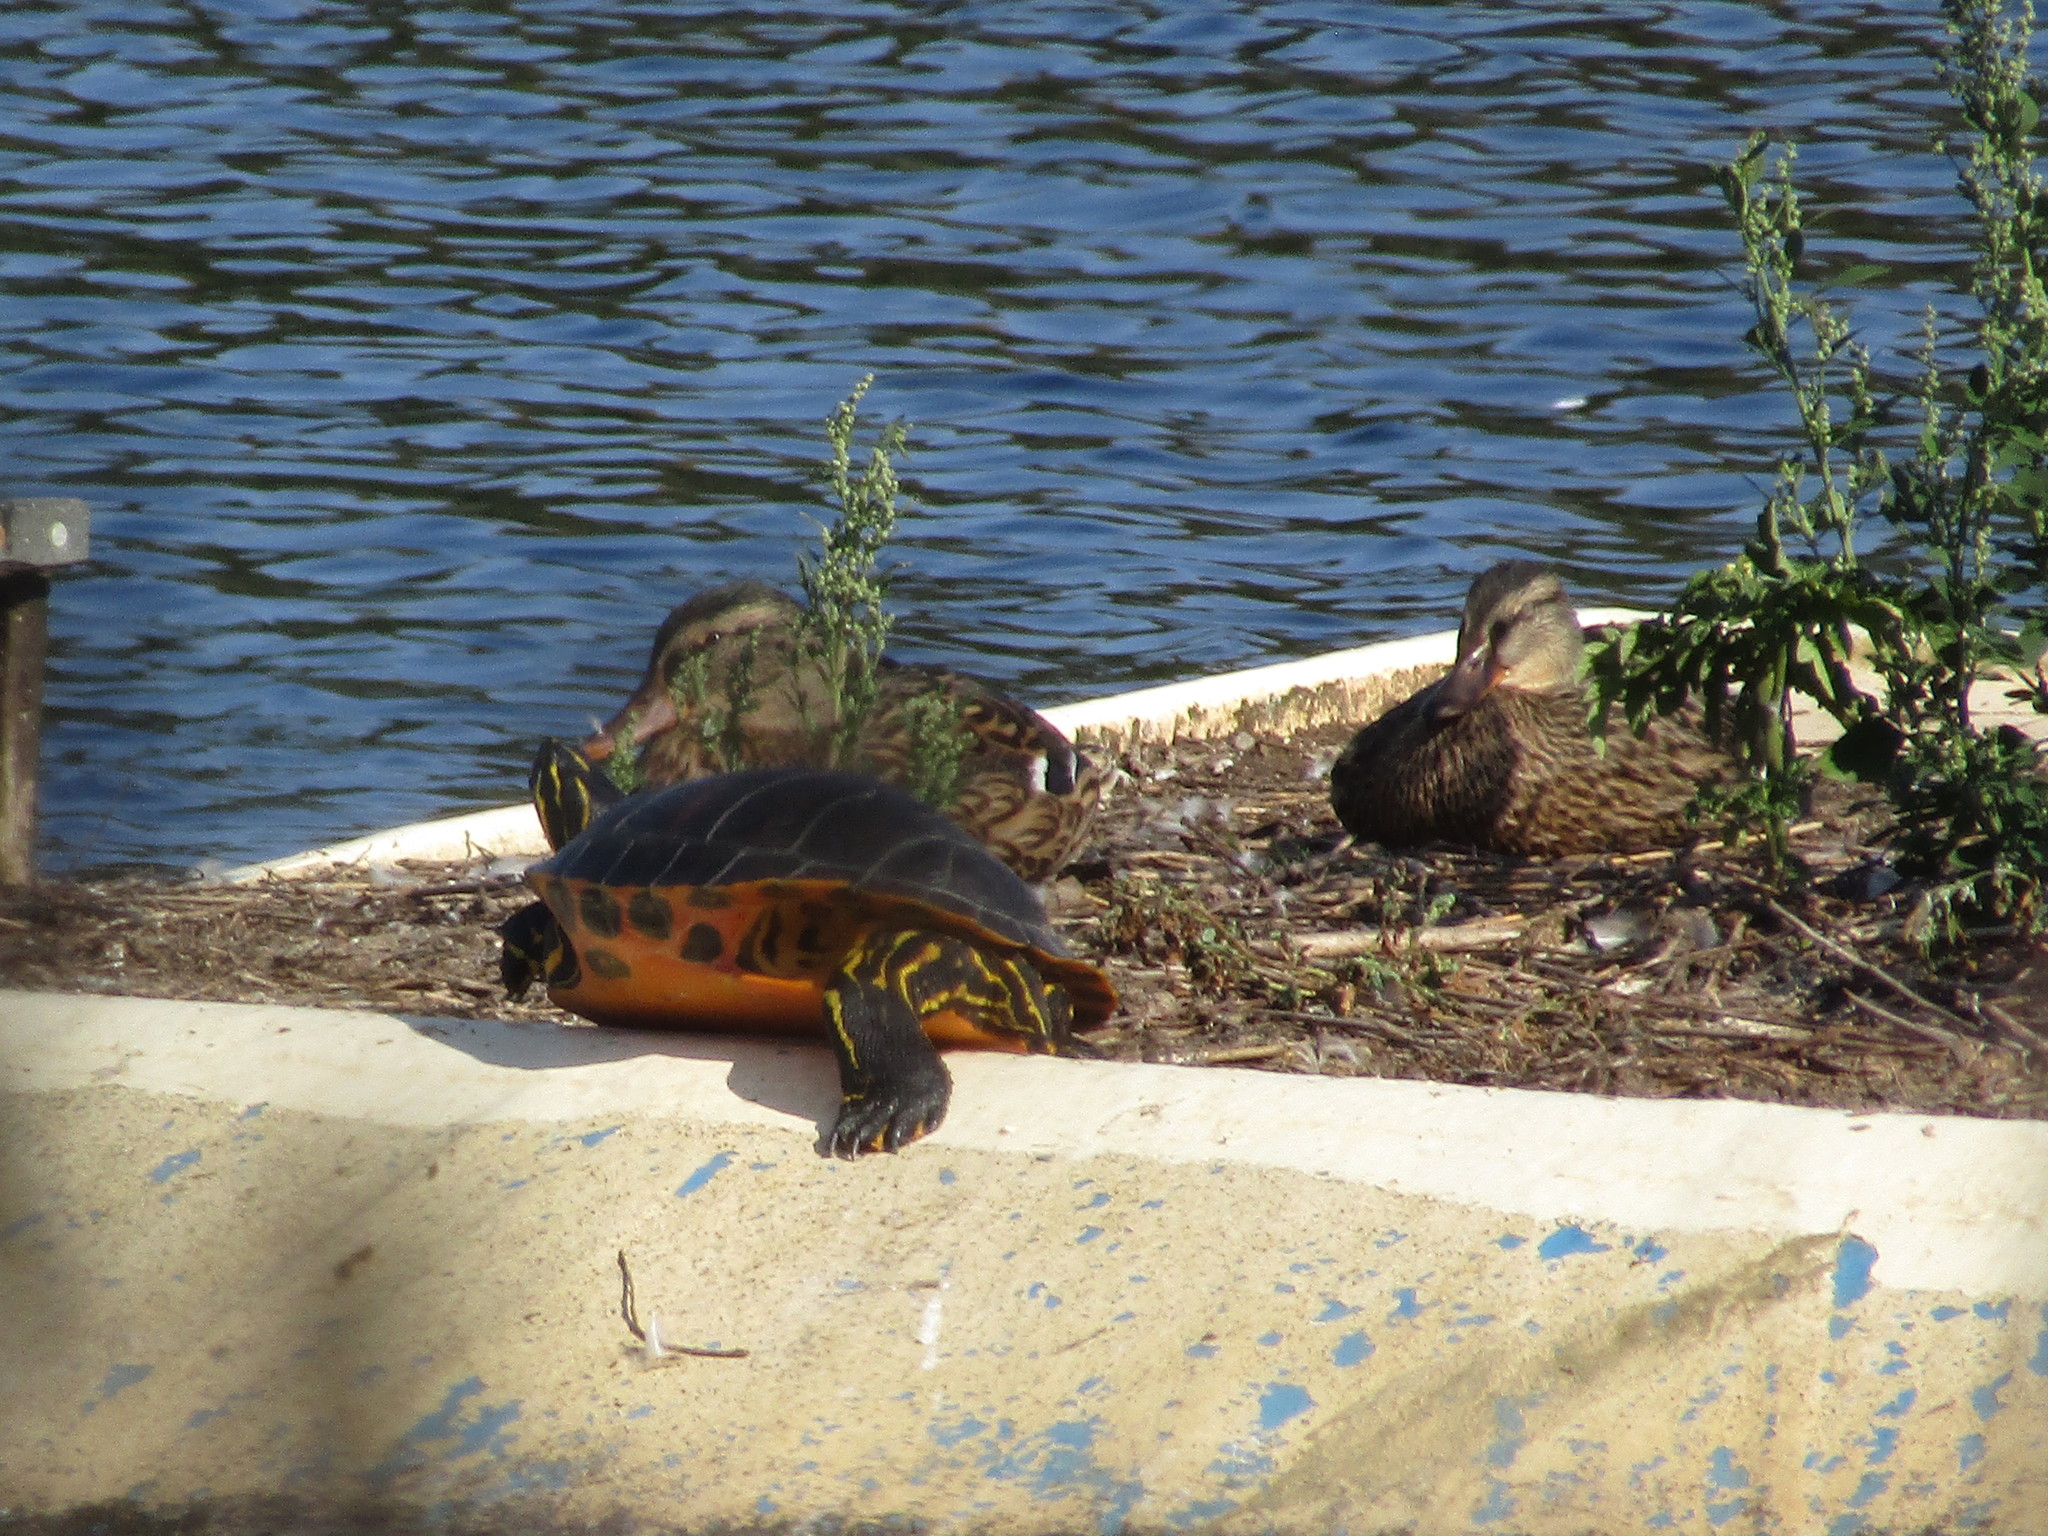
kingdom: Animalia
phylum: Chordata
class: Testudines
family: Emydidae
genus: Pseudemys
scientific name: Pseudemys nelsoni
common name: Florida red-bellied turtle
